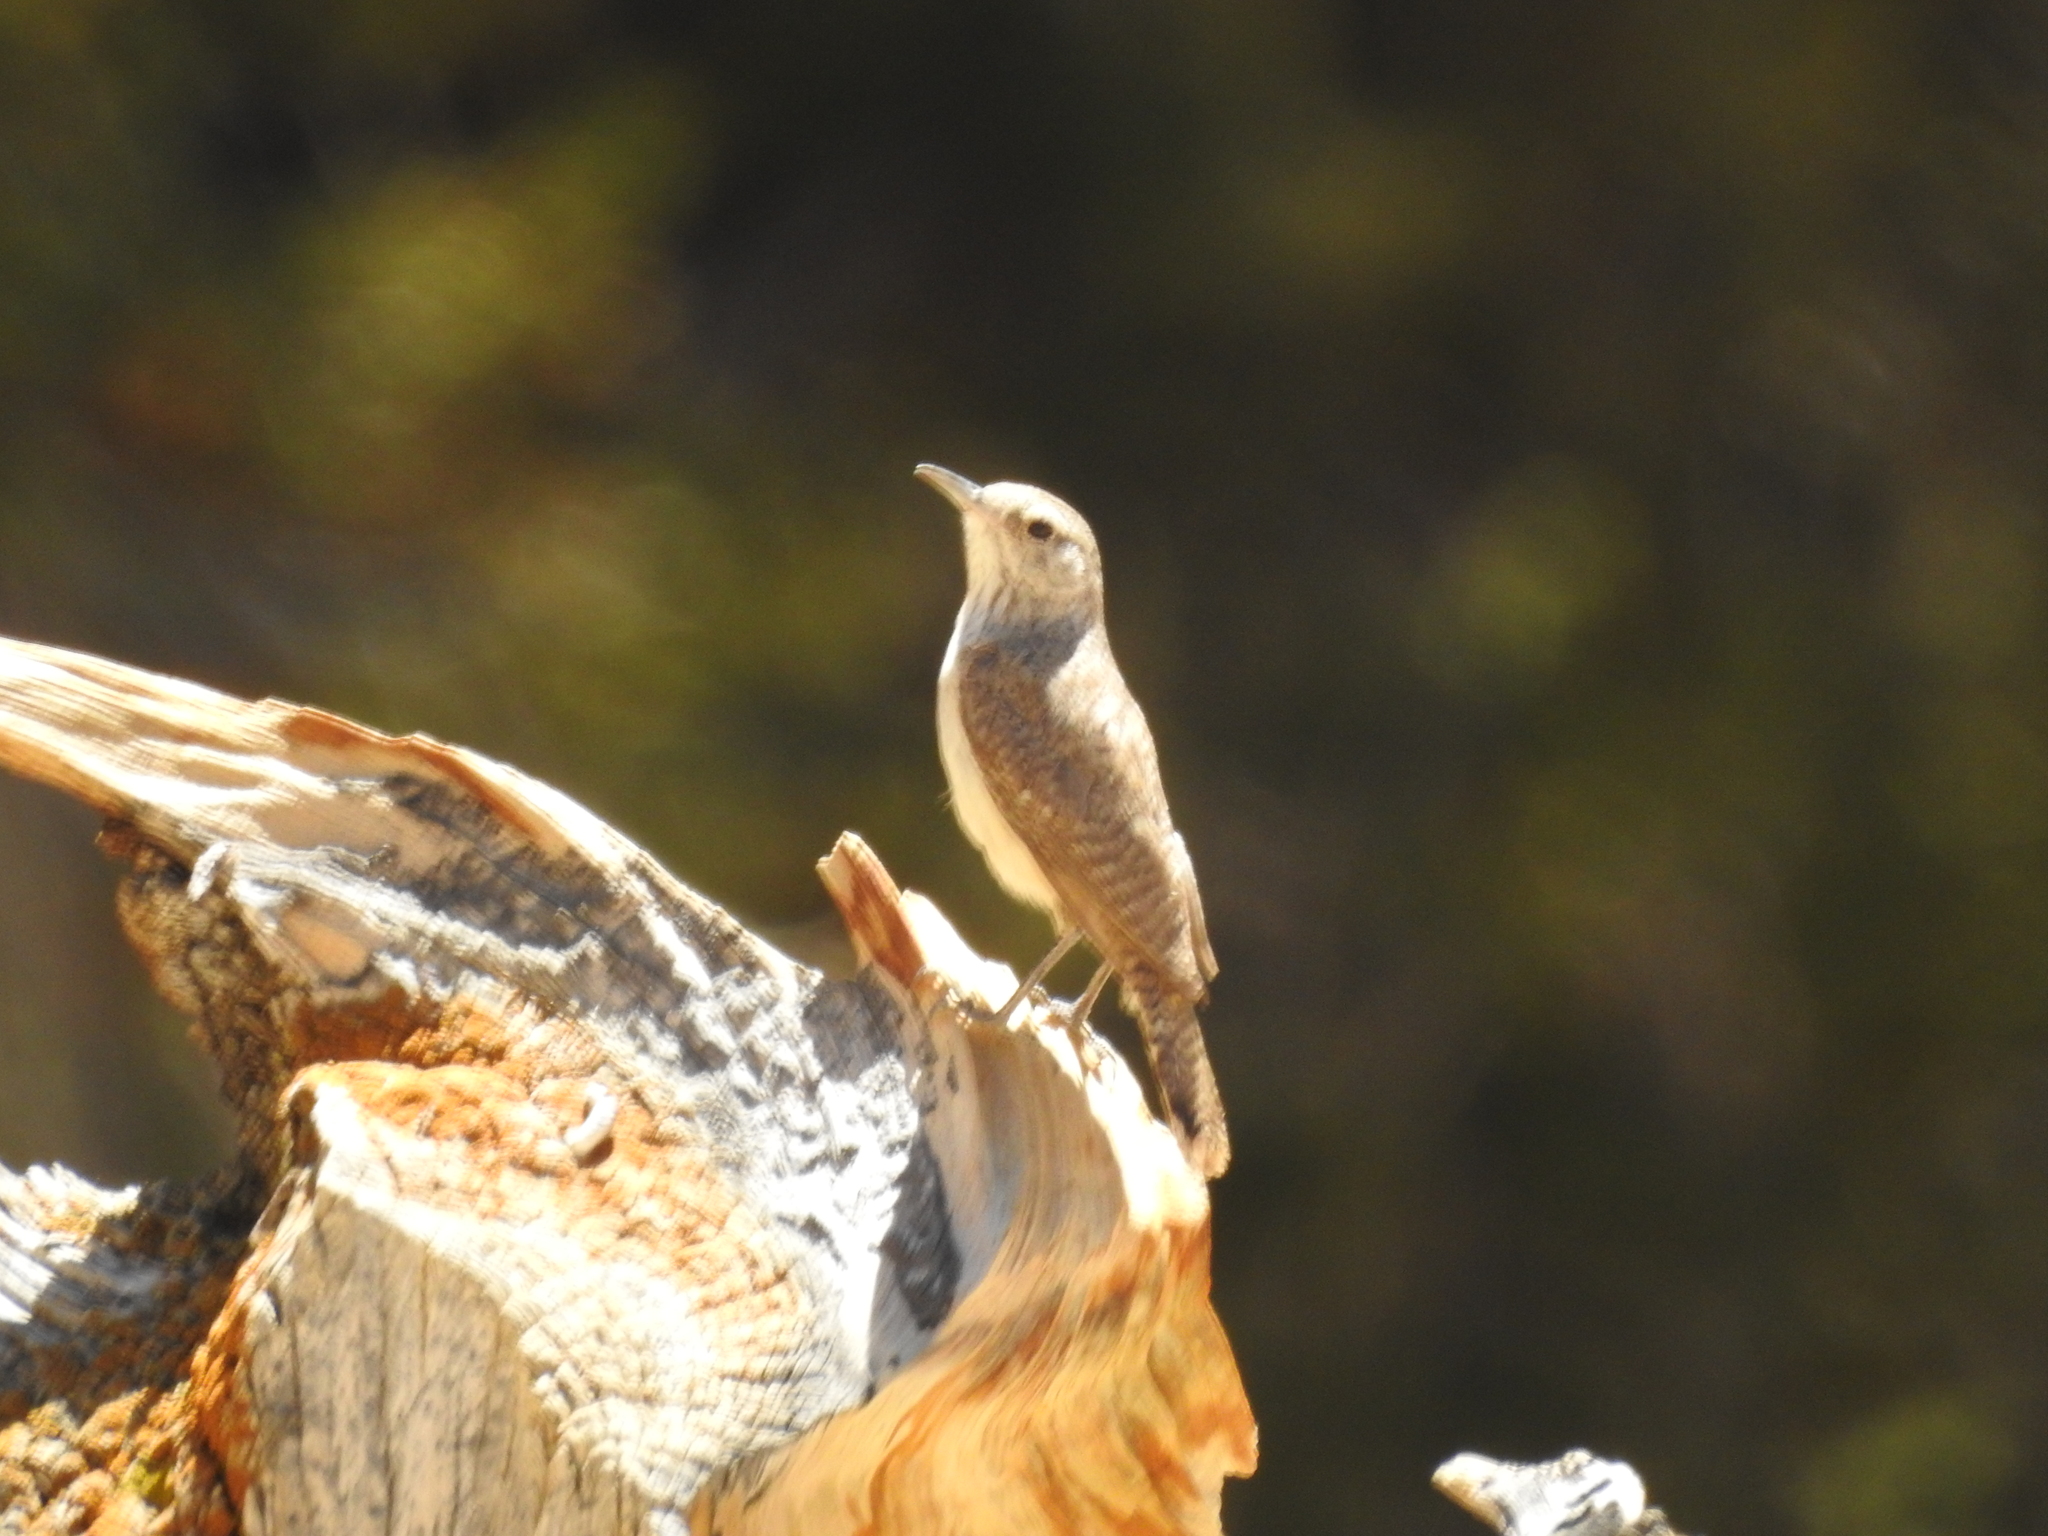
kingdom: Animalia
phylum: Chordata
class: Aves
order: Passeriformes
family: Troglodytidae
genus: Salpinctes
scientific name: Salpinctes obsoletus
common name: Rock wren
